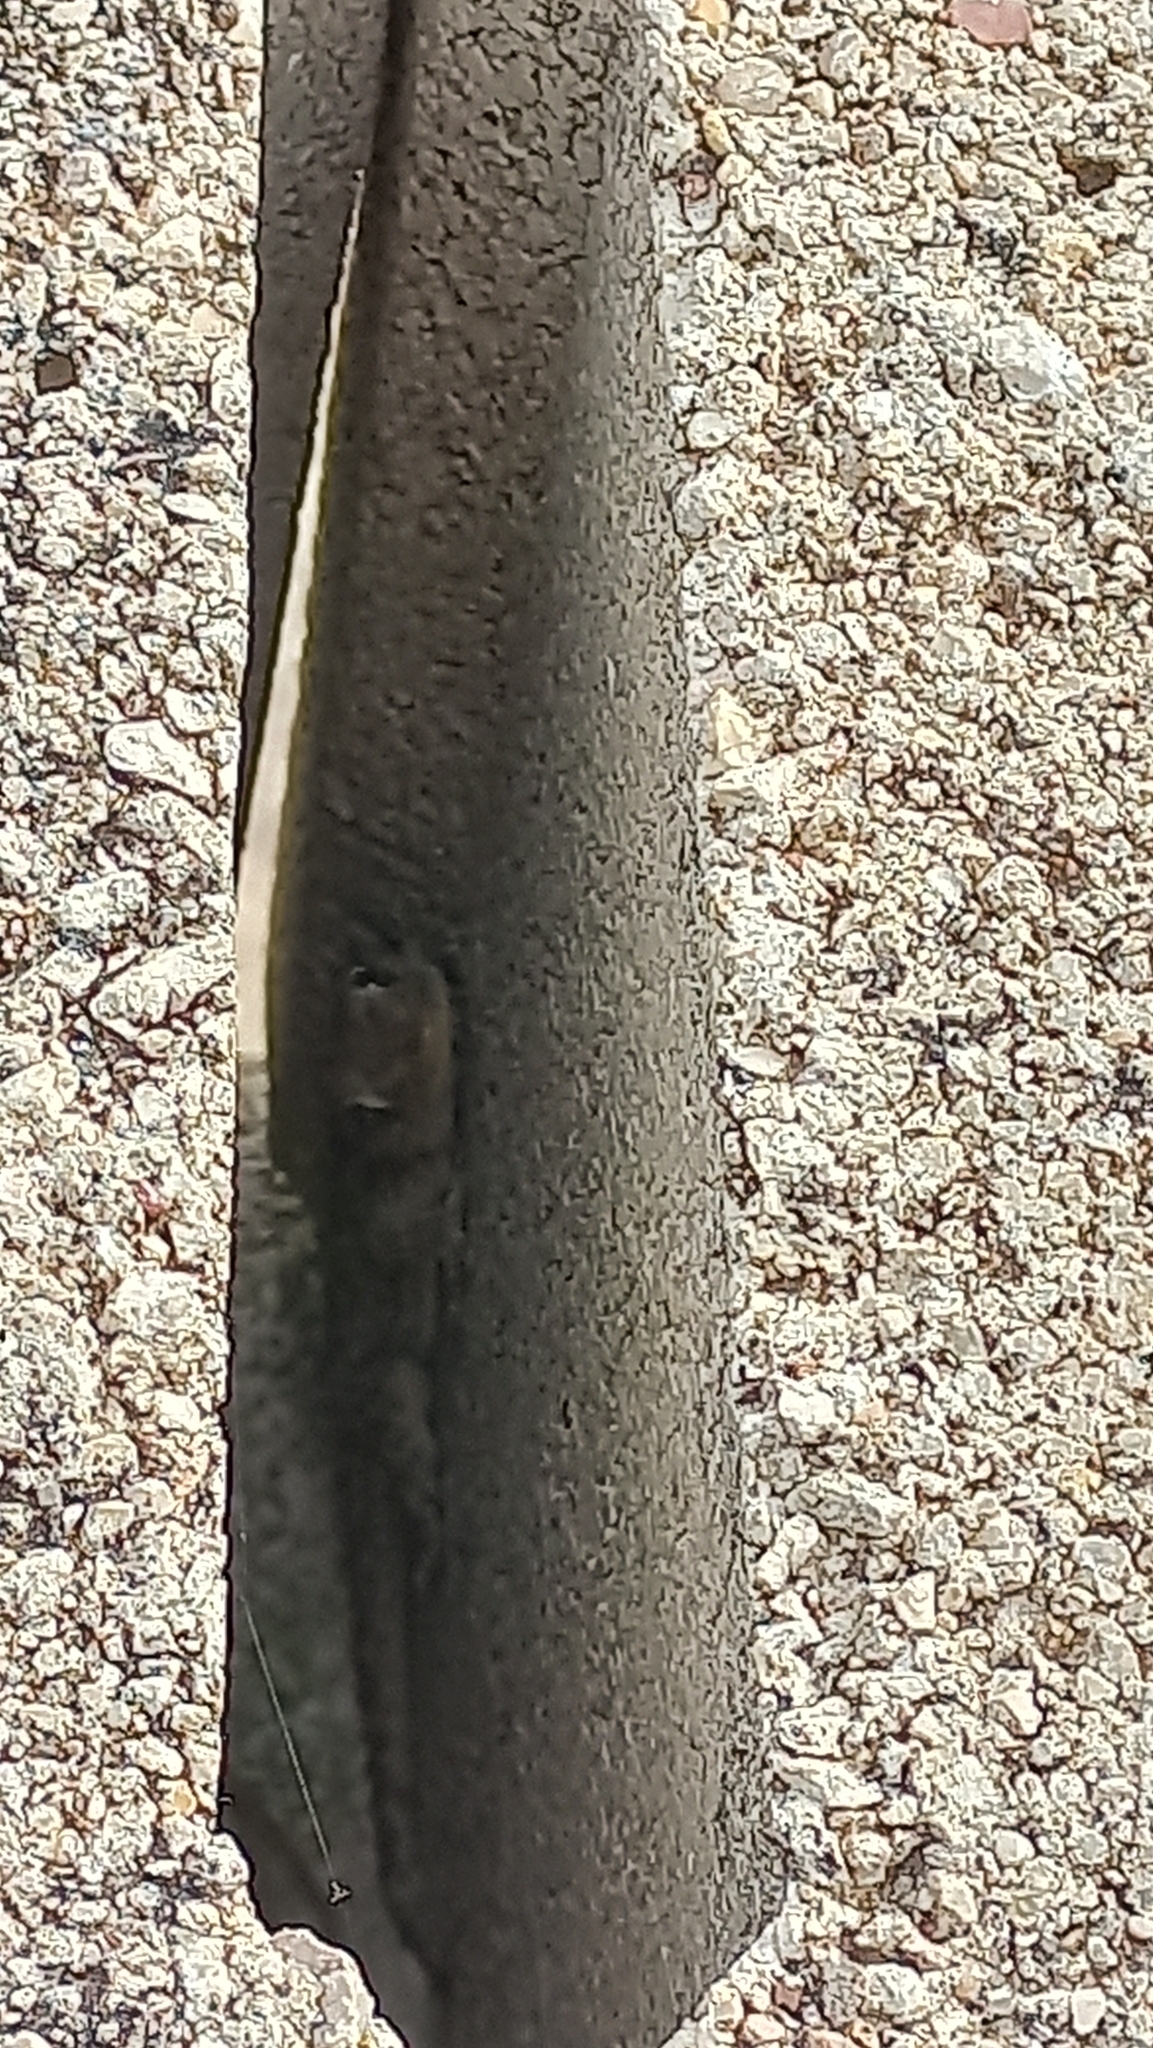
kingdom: Animalia
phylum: Chordata
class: Squamata
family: Phyllodactylidae
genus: Tarentola
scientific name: Tarentola mauritanica
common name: Moorish gecko
